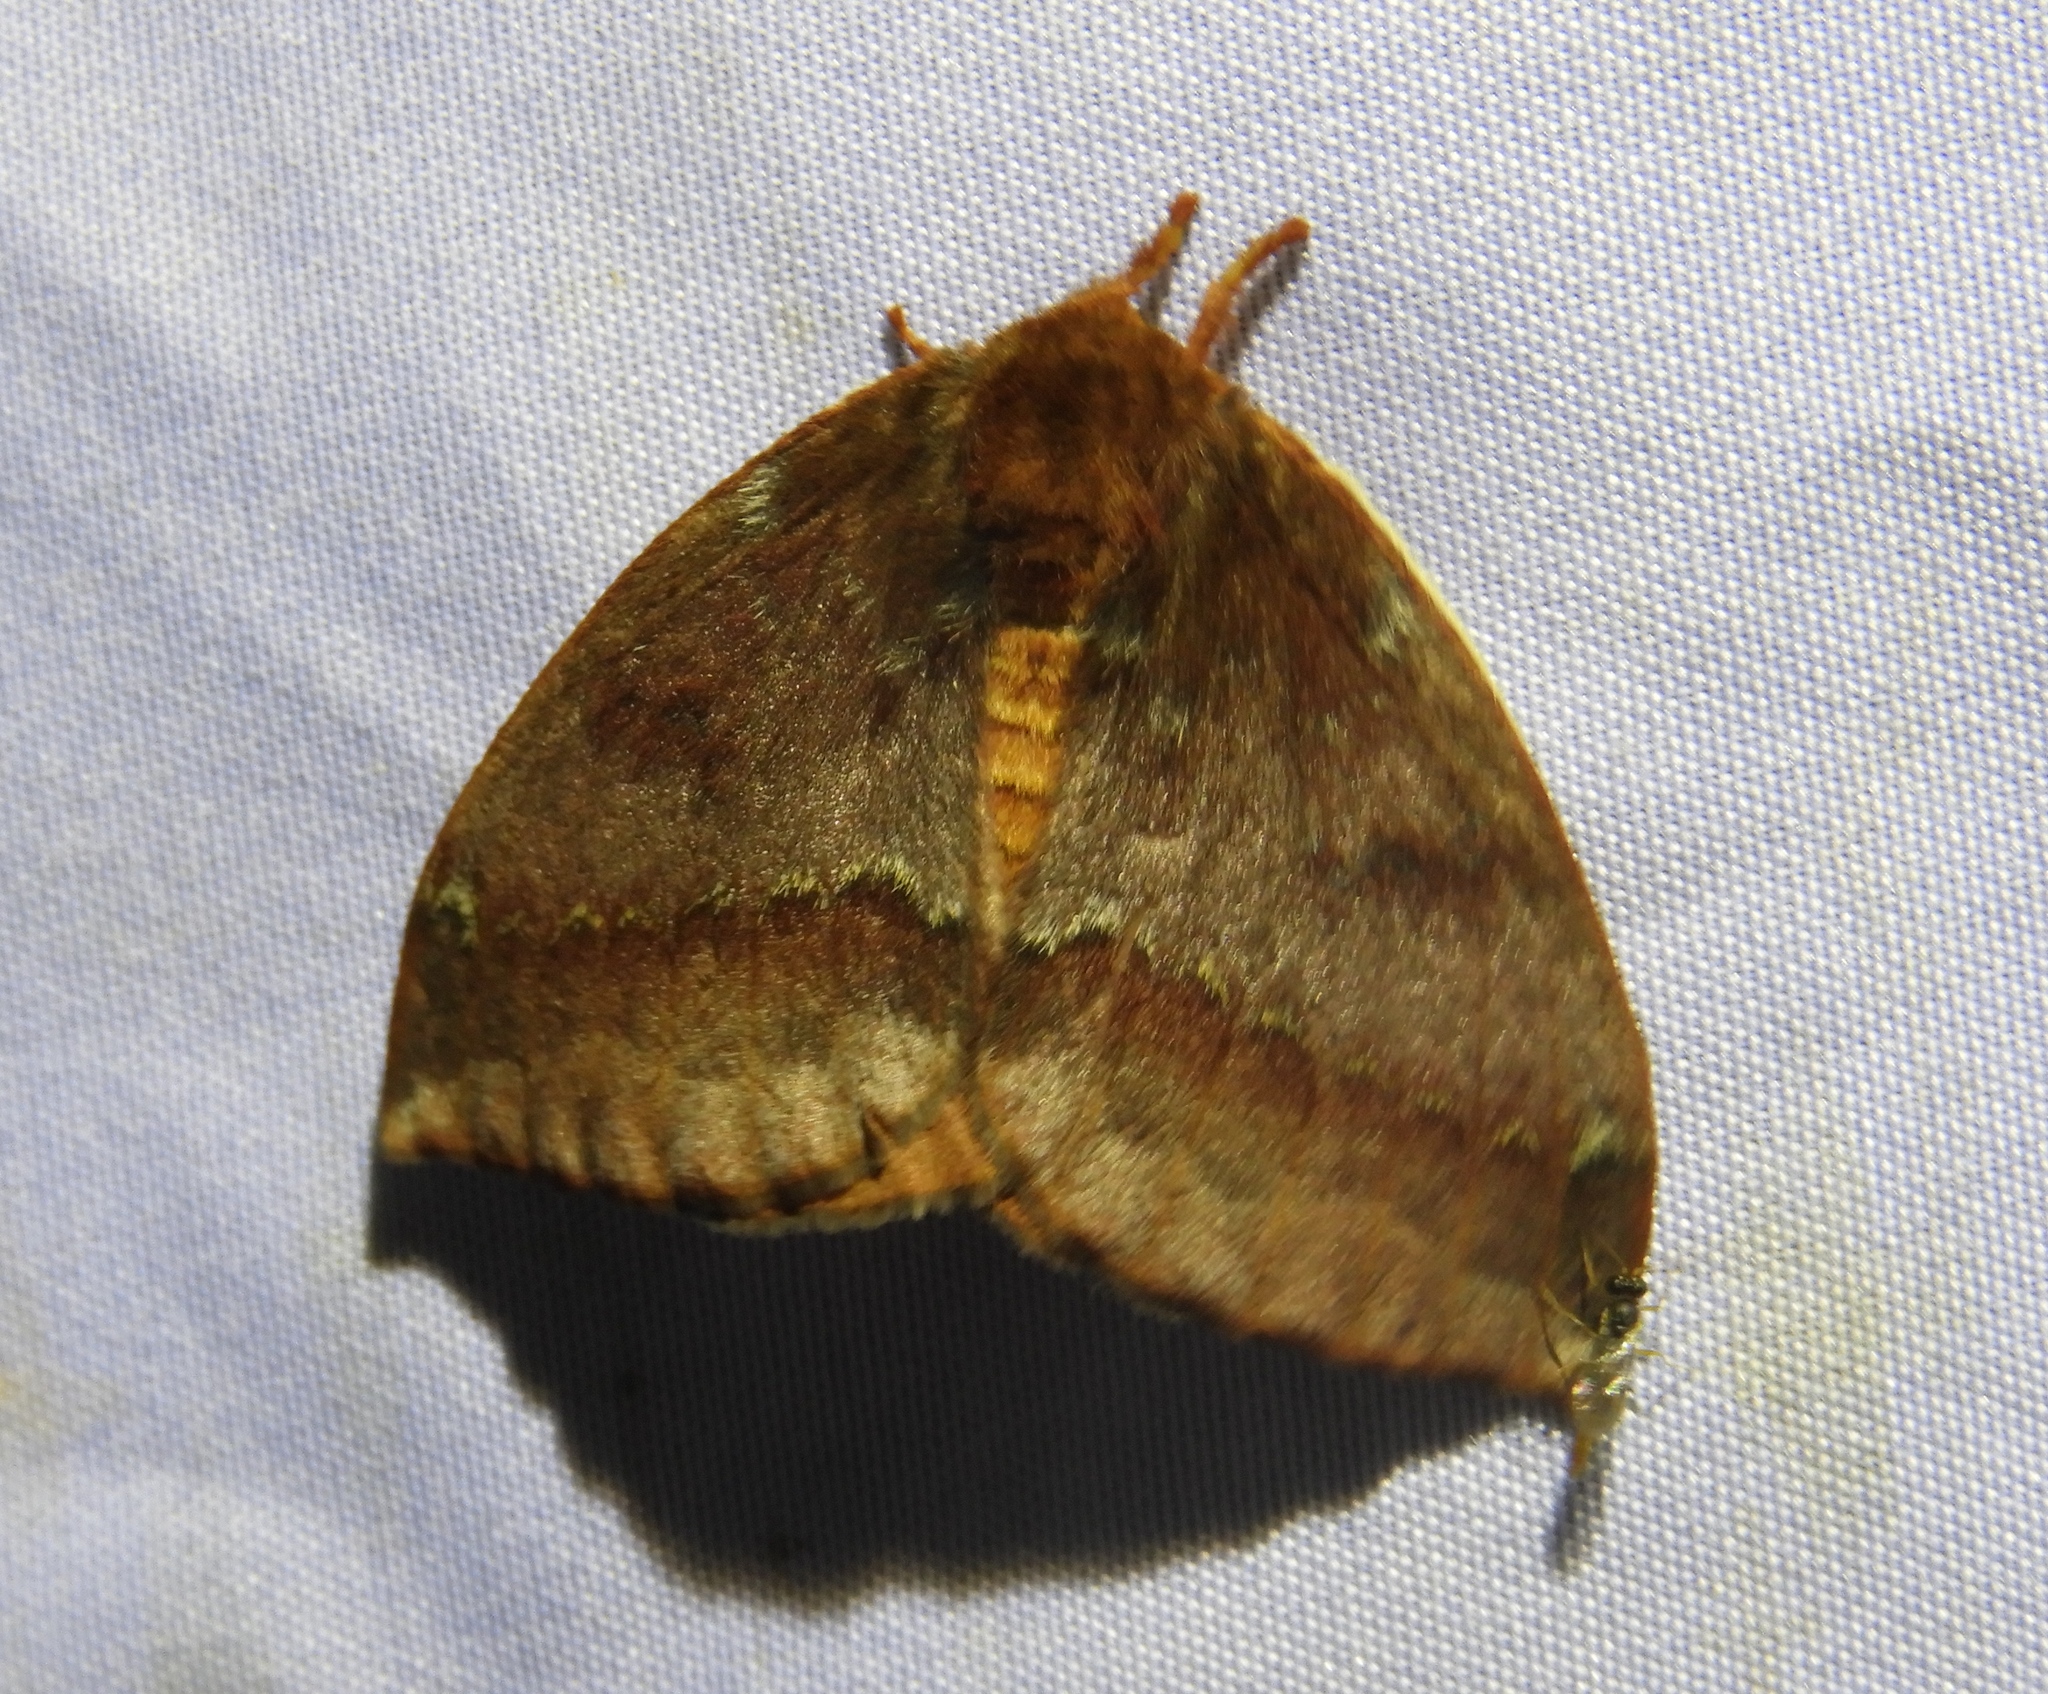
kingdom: Animalia
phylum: Arthropoda
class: Insecta
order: Lepidoptera
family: Saturniidae
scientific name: Saturniidae
